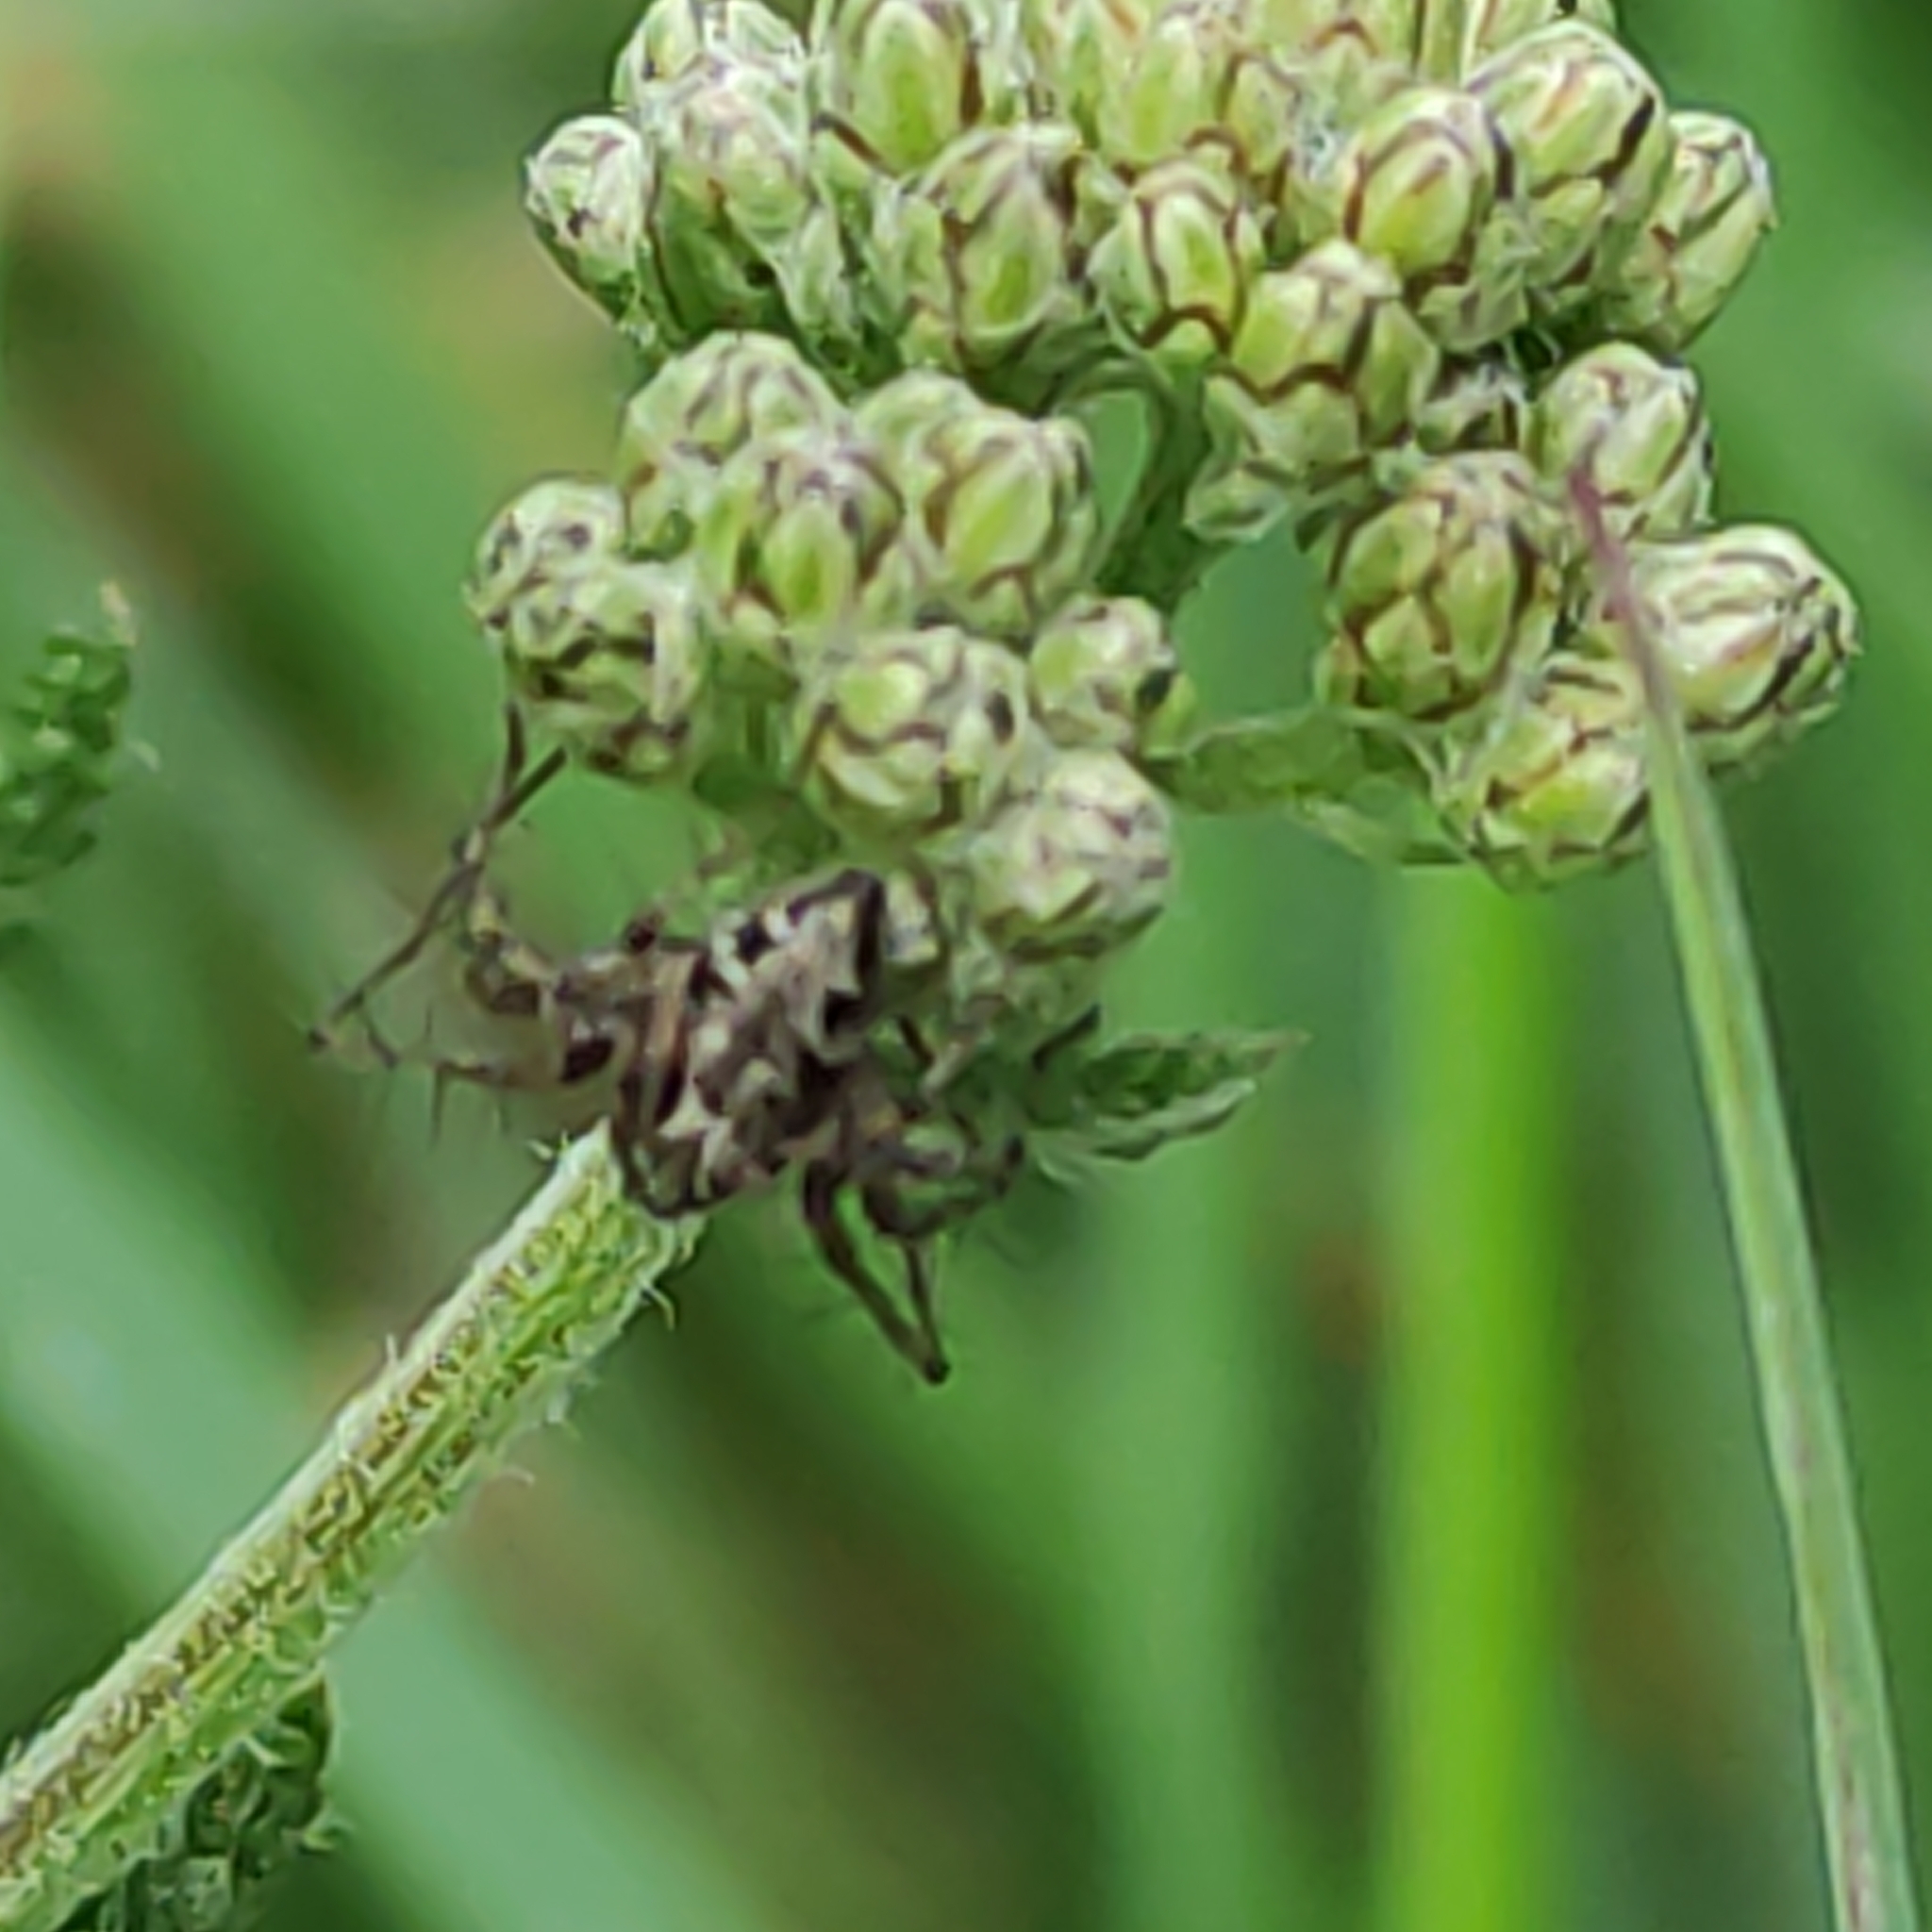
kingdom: Animalia
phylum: Arthropoda
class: Arachnida
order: Araneae
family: Oxyopidae
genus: Oxyopes
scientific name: Oxyopes gracilipes
